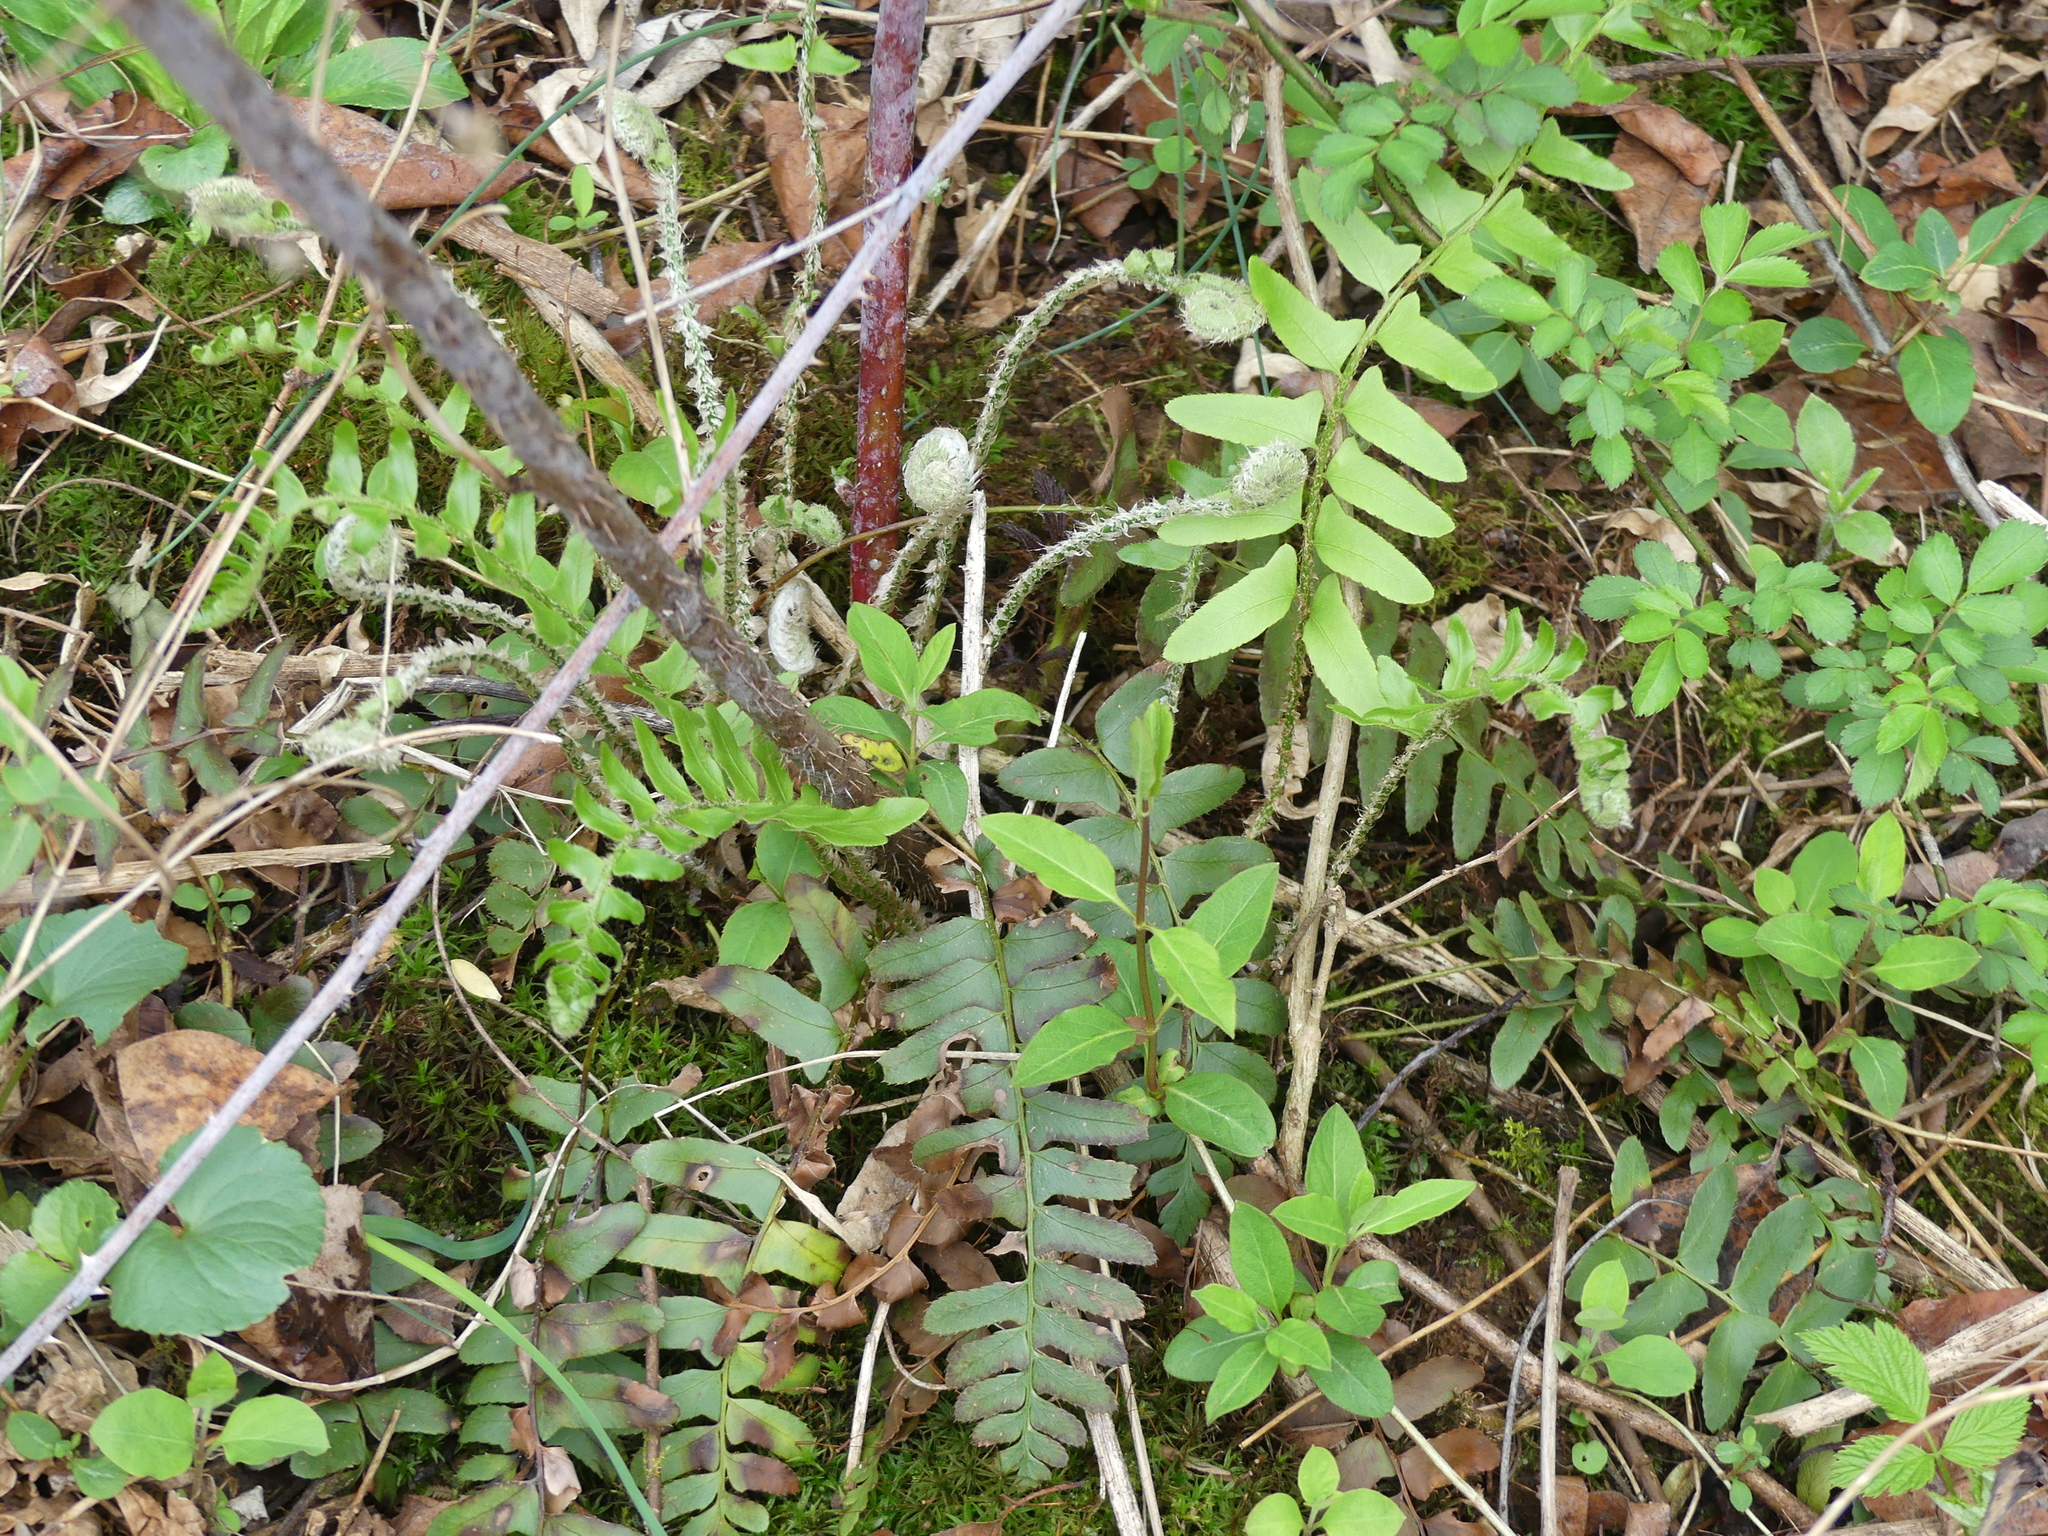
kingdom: Plantae
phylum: Tracheophyta
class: Polypodiopsida
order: Polypodiales
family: Dryopteridaceae
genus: Polystichum
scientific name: Polystichum acrostichoides
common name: Christmas fern
